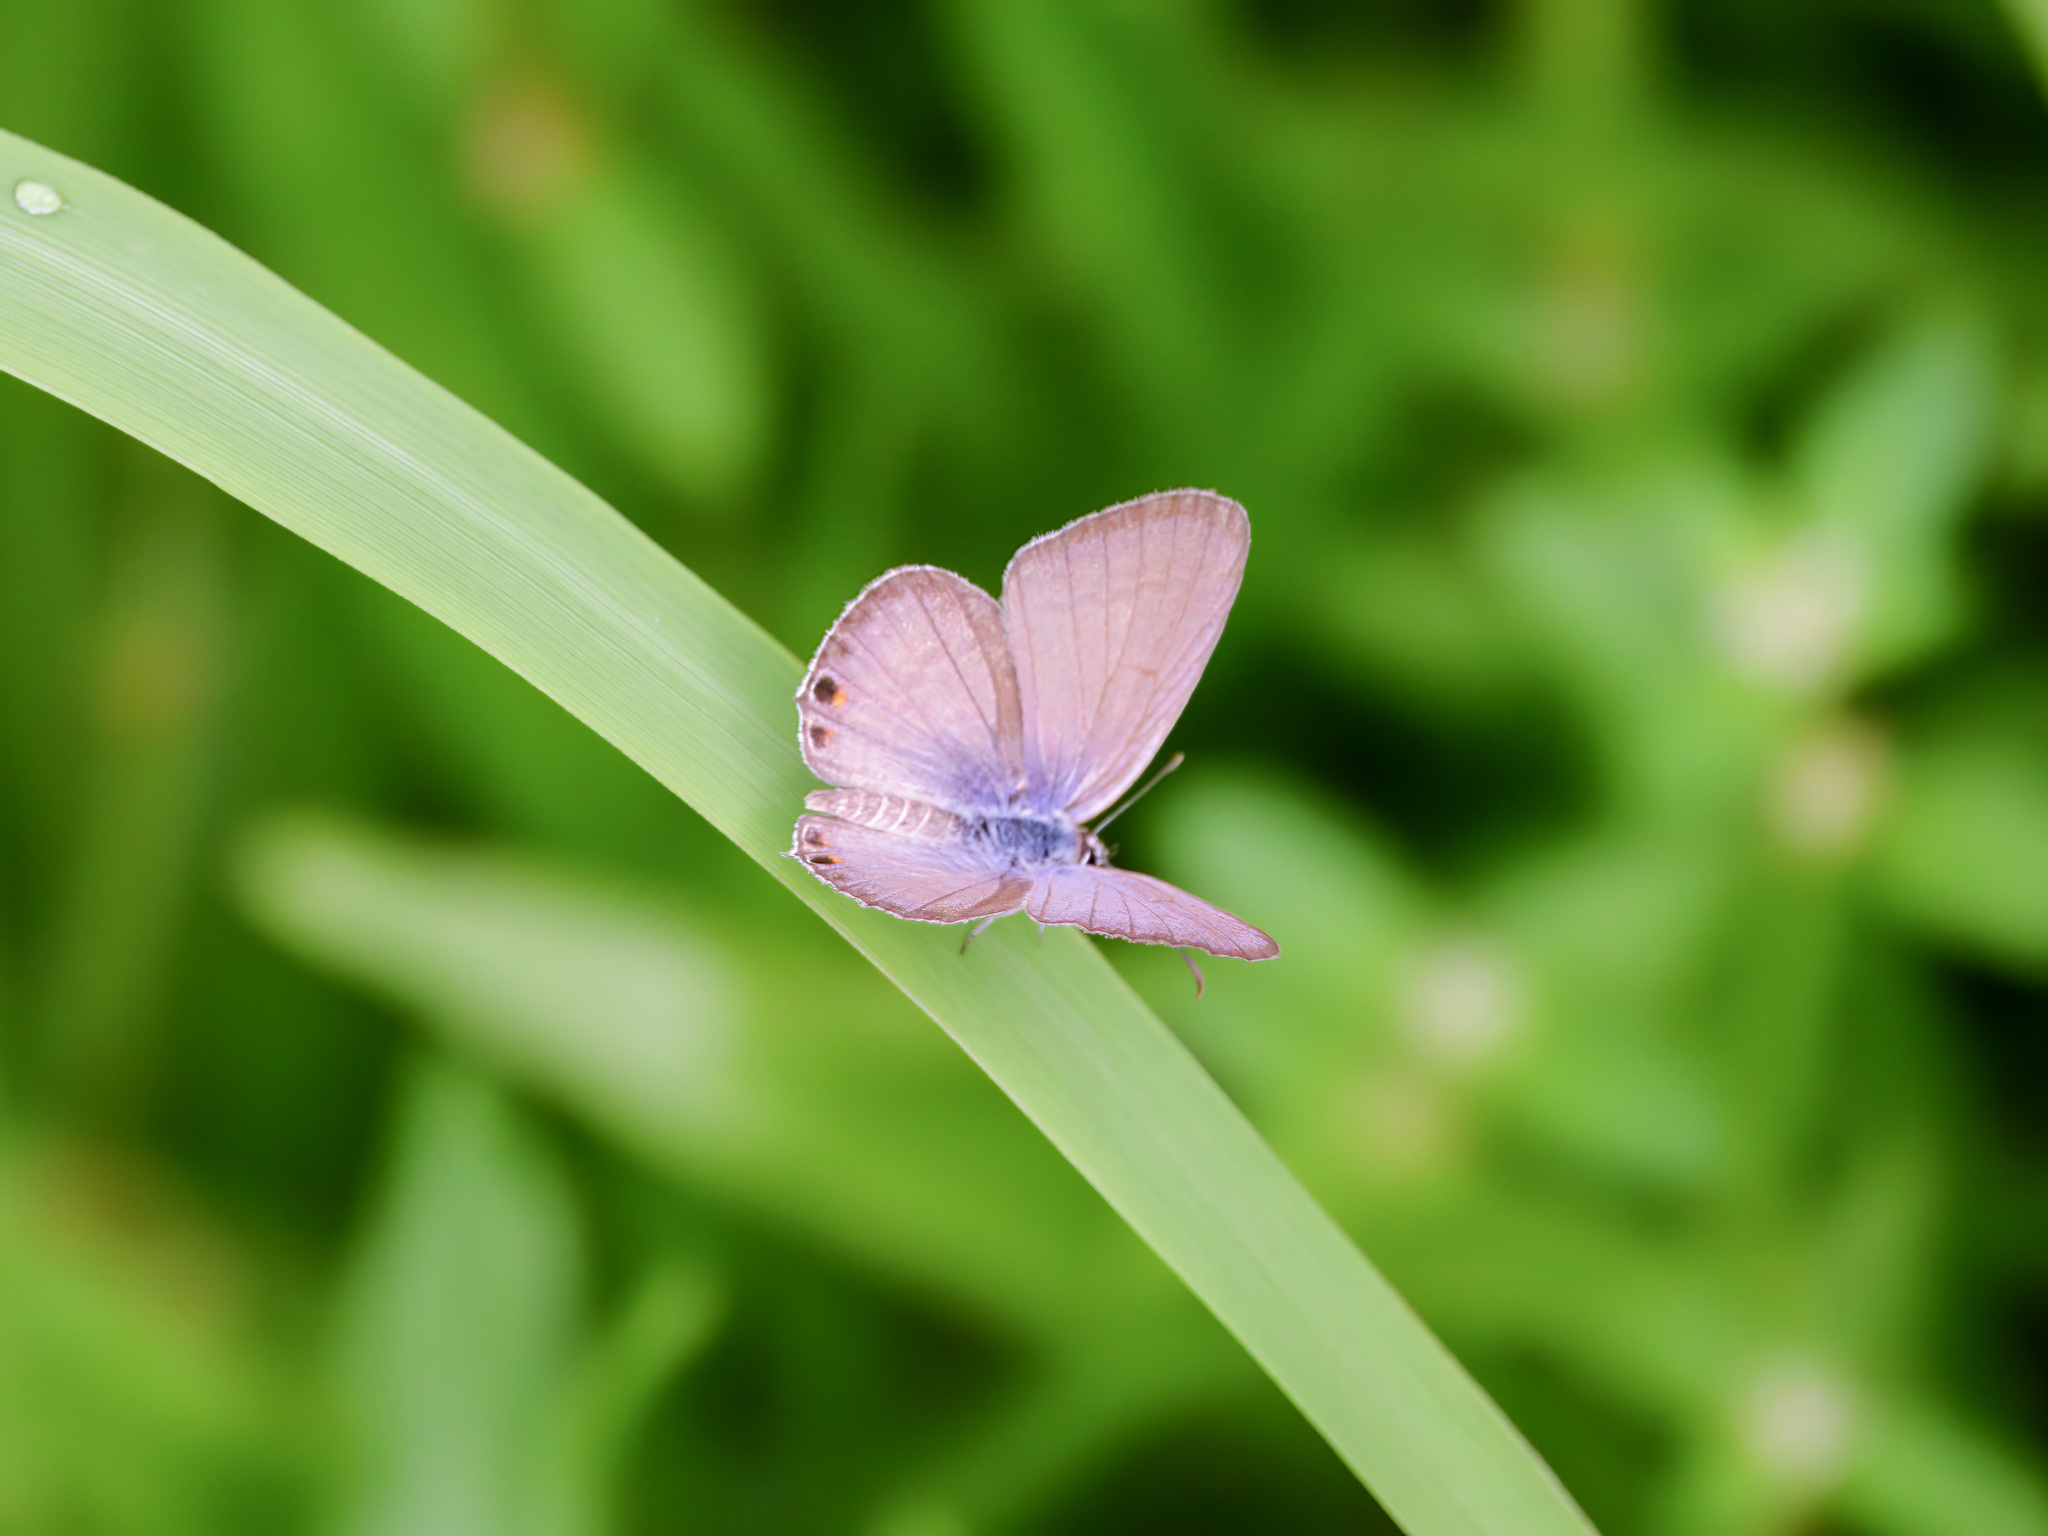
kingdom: Animalia
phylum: Arthropoda
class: Insecta
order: Lepidoptera
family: Lycaenidae
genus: Euchrysops
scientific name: Euchrysops cnejus
